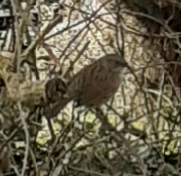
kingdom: Animalia
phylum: Chordata
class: Aves
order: Passeriformes
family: Prunellidae
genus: Prunella
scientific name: Prunella modularis
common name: Dunnock
